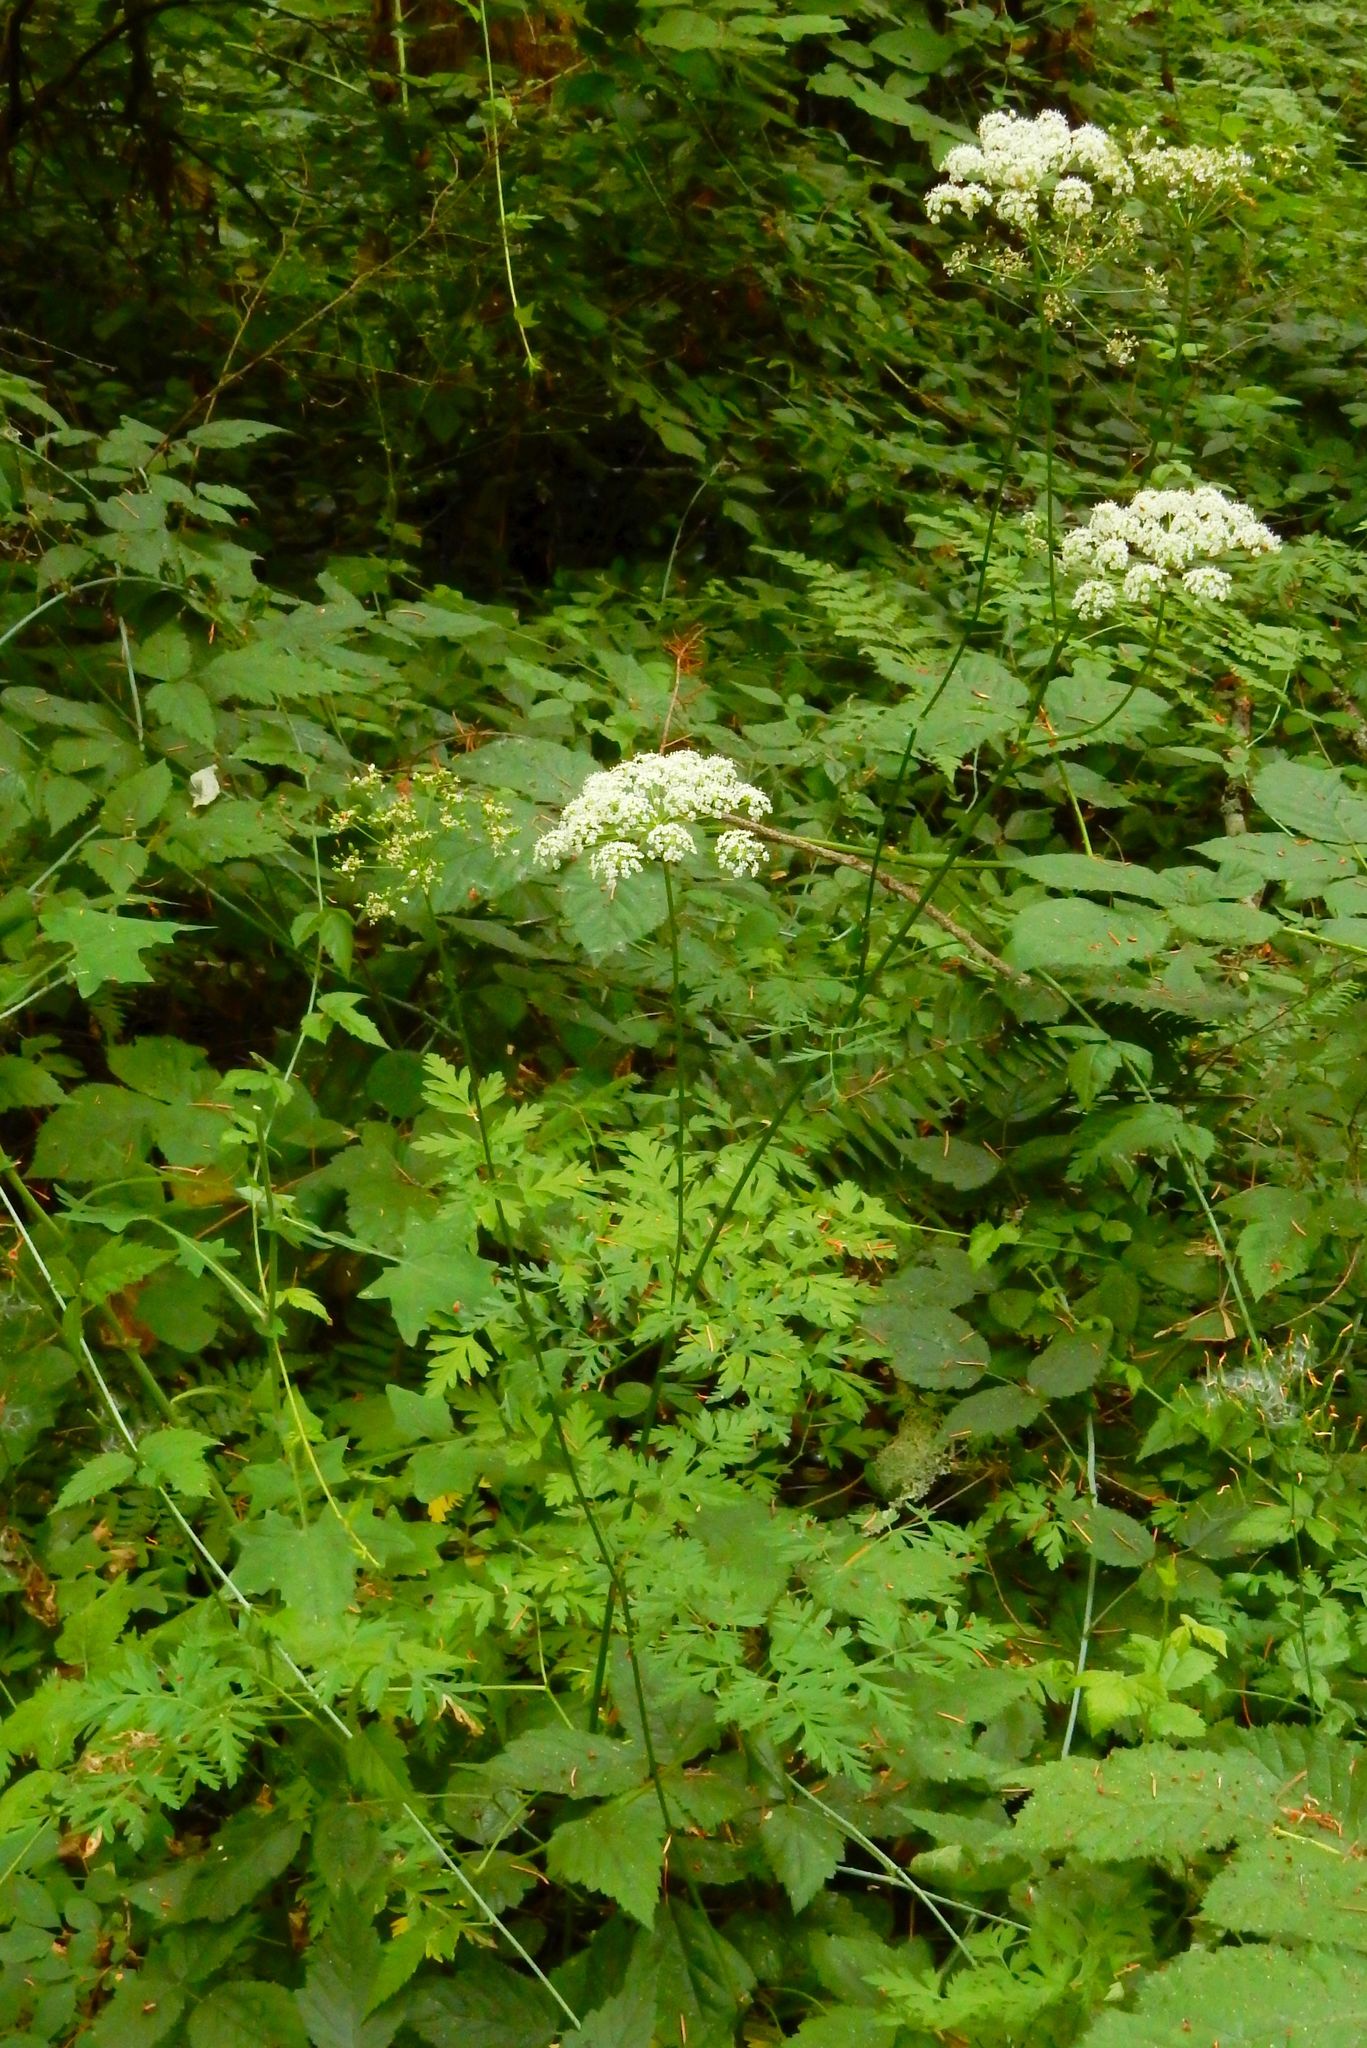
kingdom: Plantae
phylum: Tracheophyta
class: Magnoliopsida
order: Apiales
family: Apiaceae
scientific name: Apiaceae
